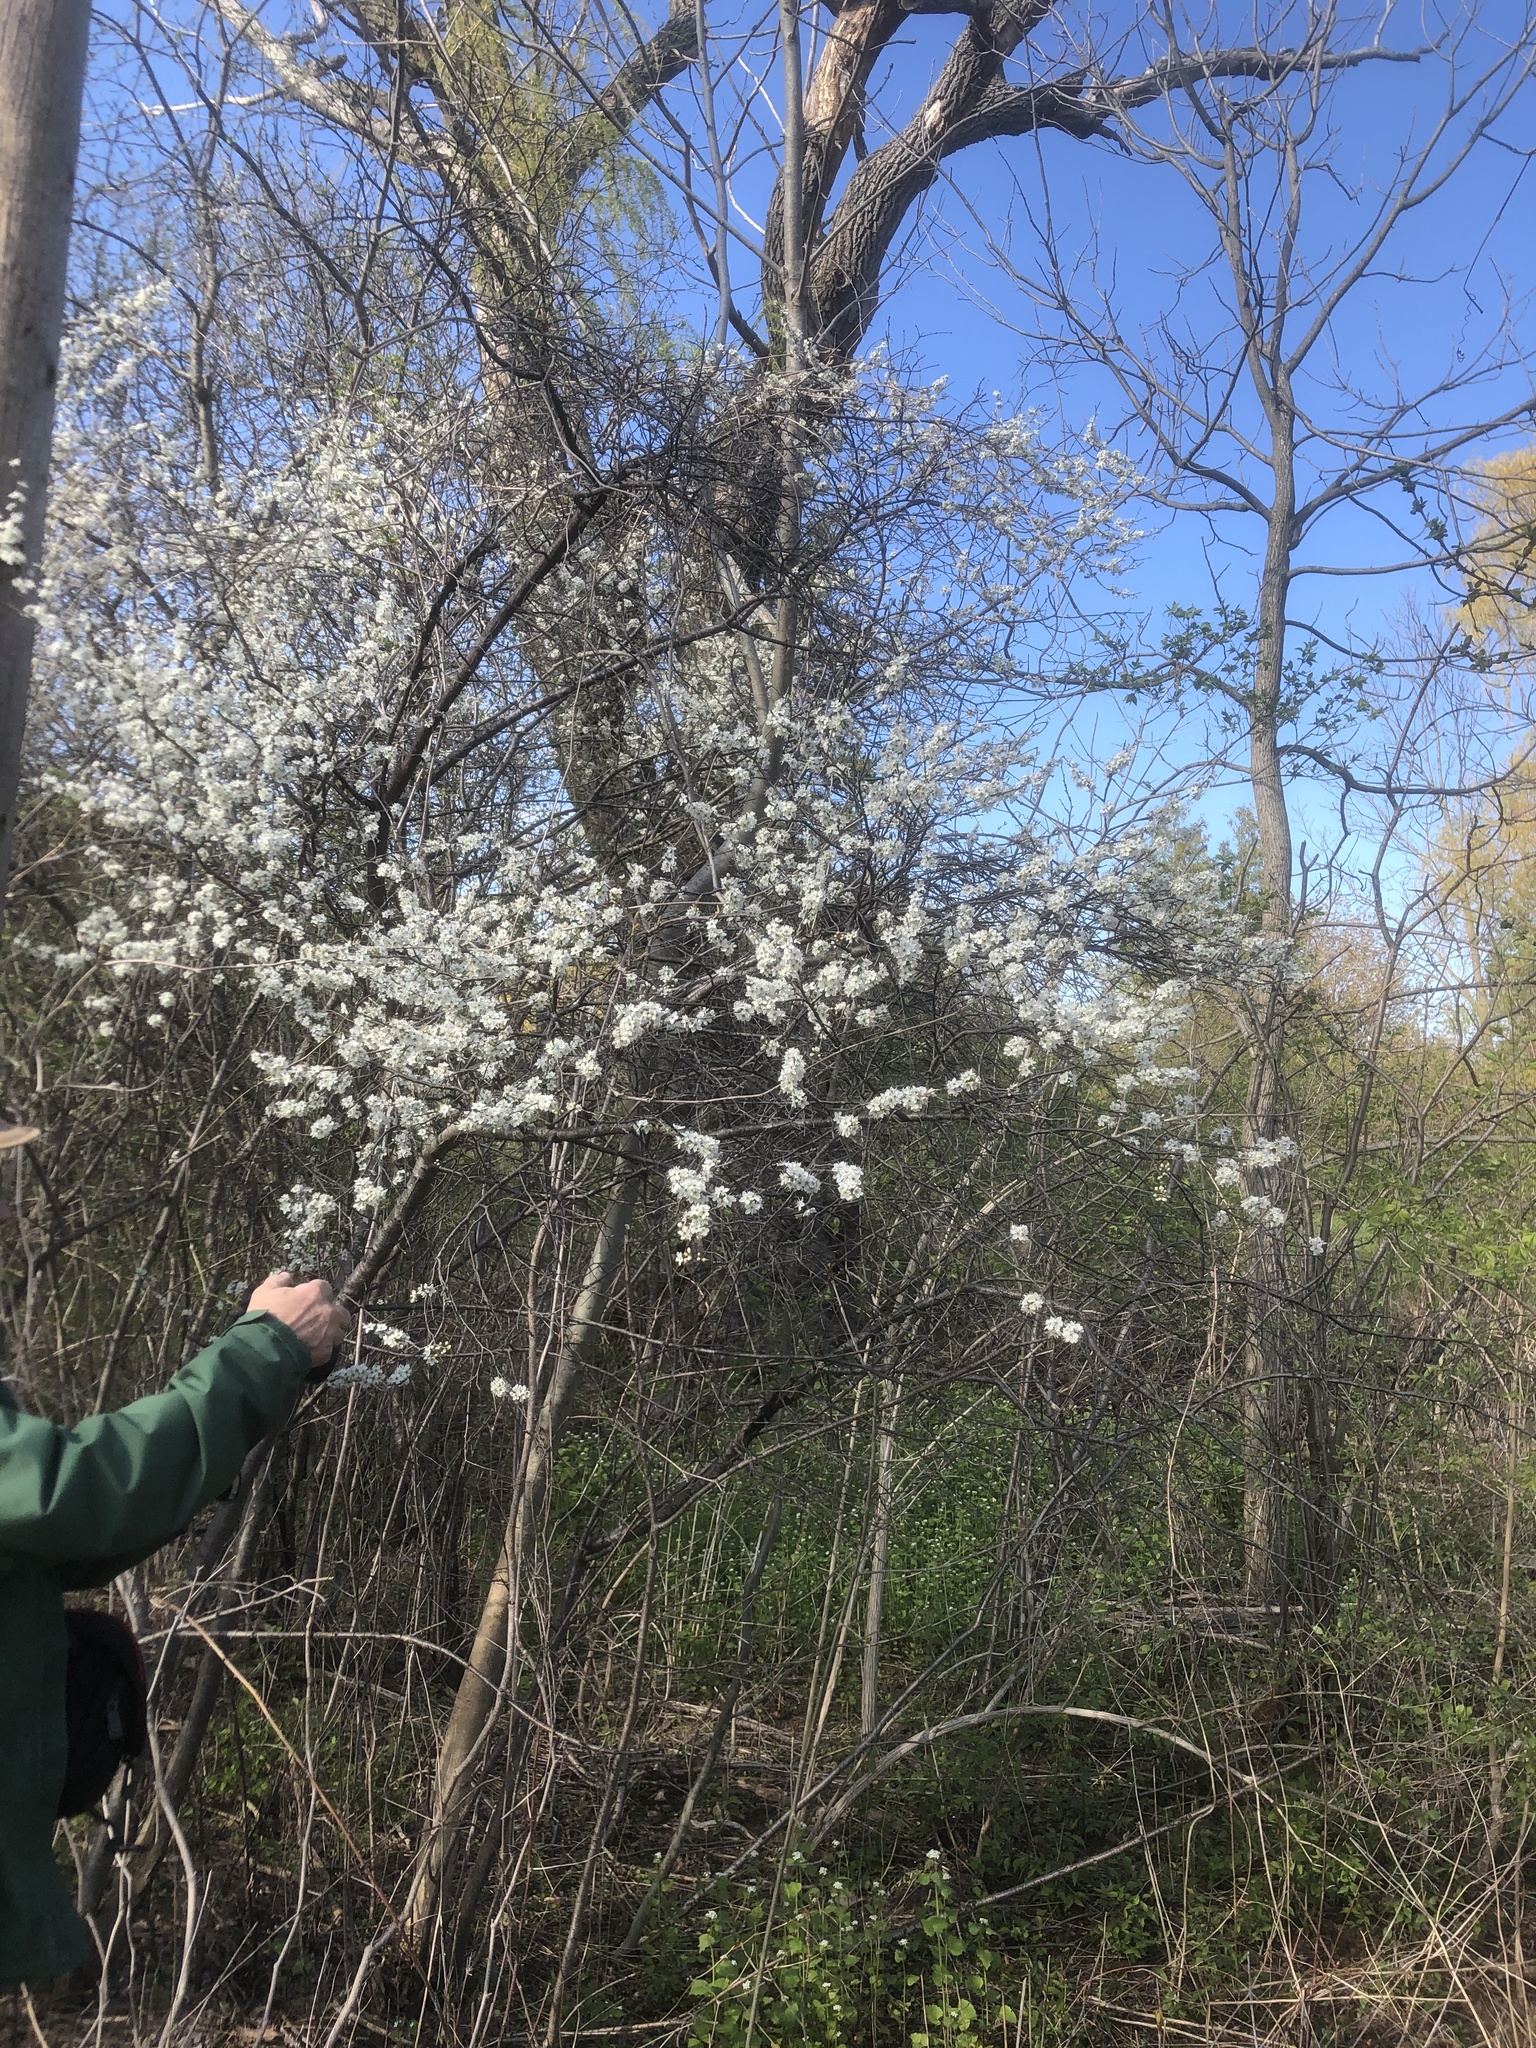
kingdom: Plantae
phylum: Tracheophyta
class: Magnoliopsida
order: Rosales
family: Rosaceae
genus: Prunus
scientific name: Prunus americana
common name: American plum
